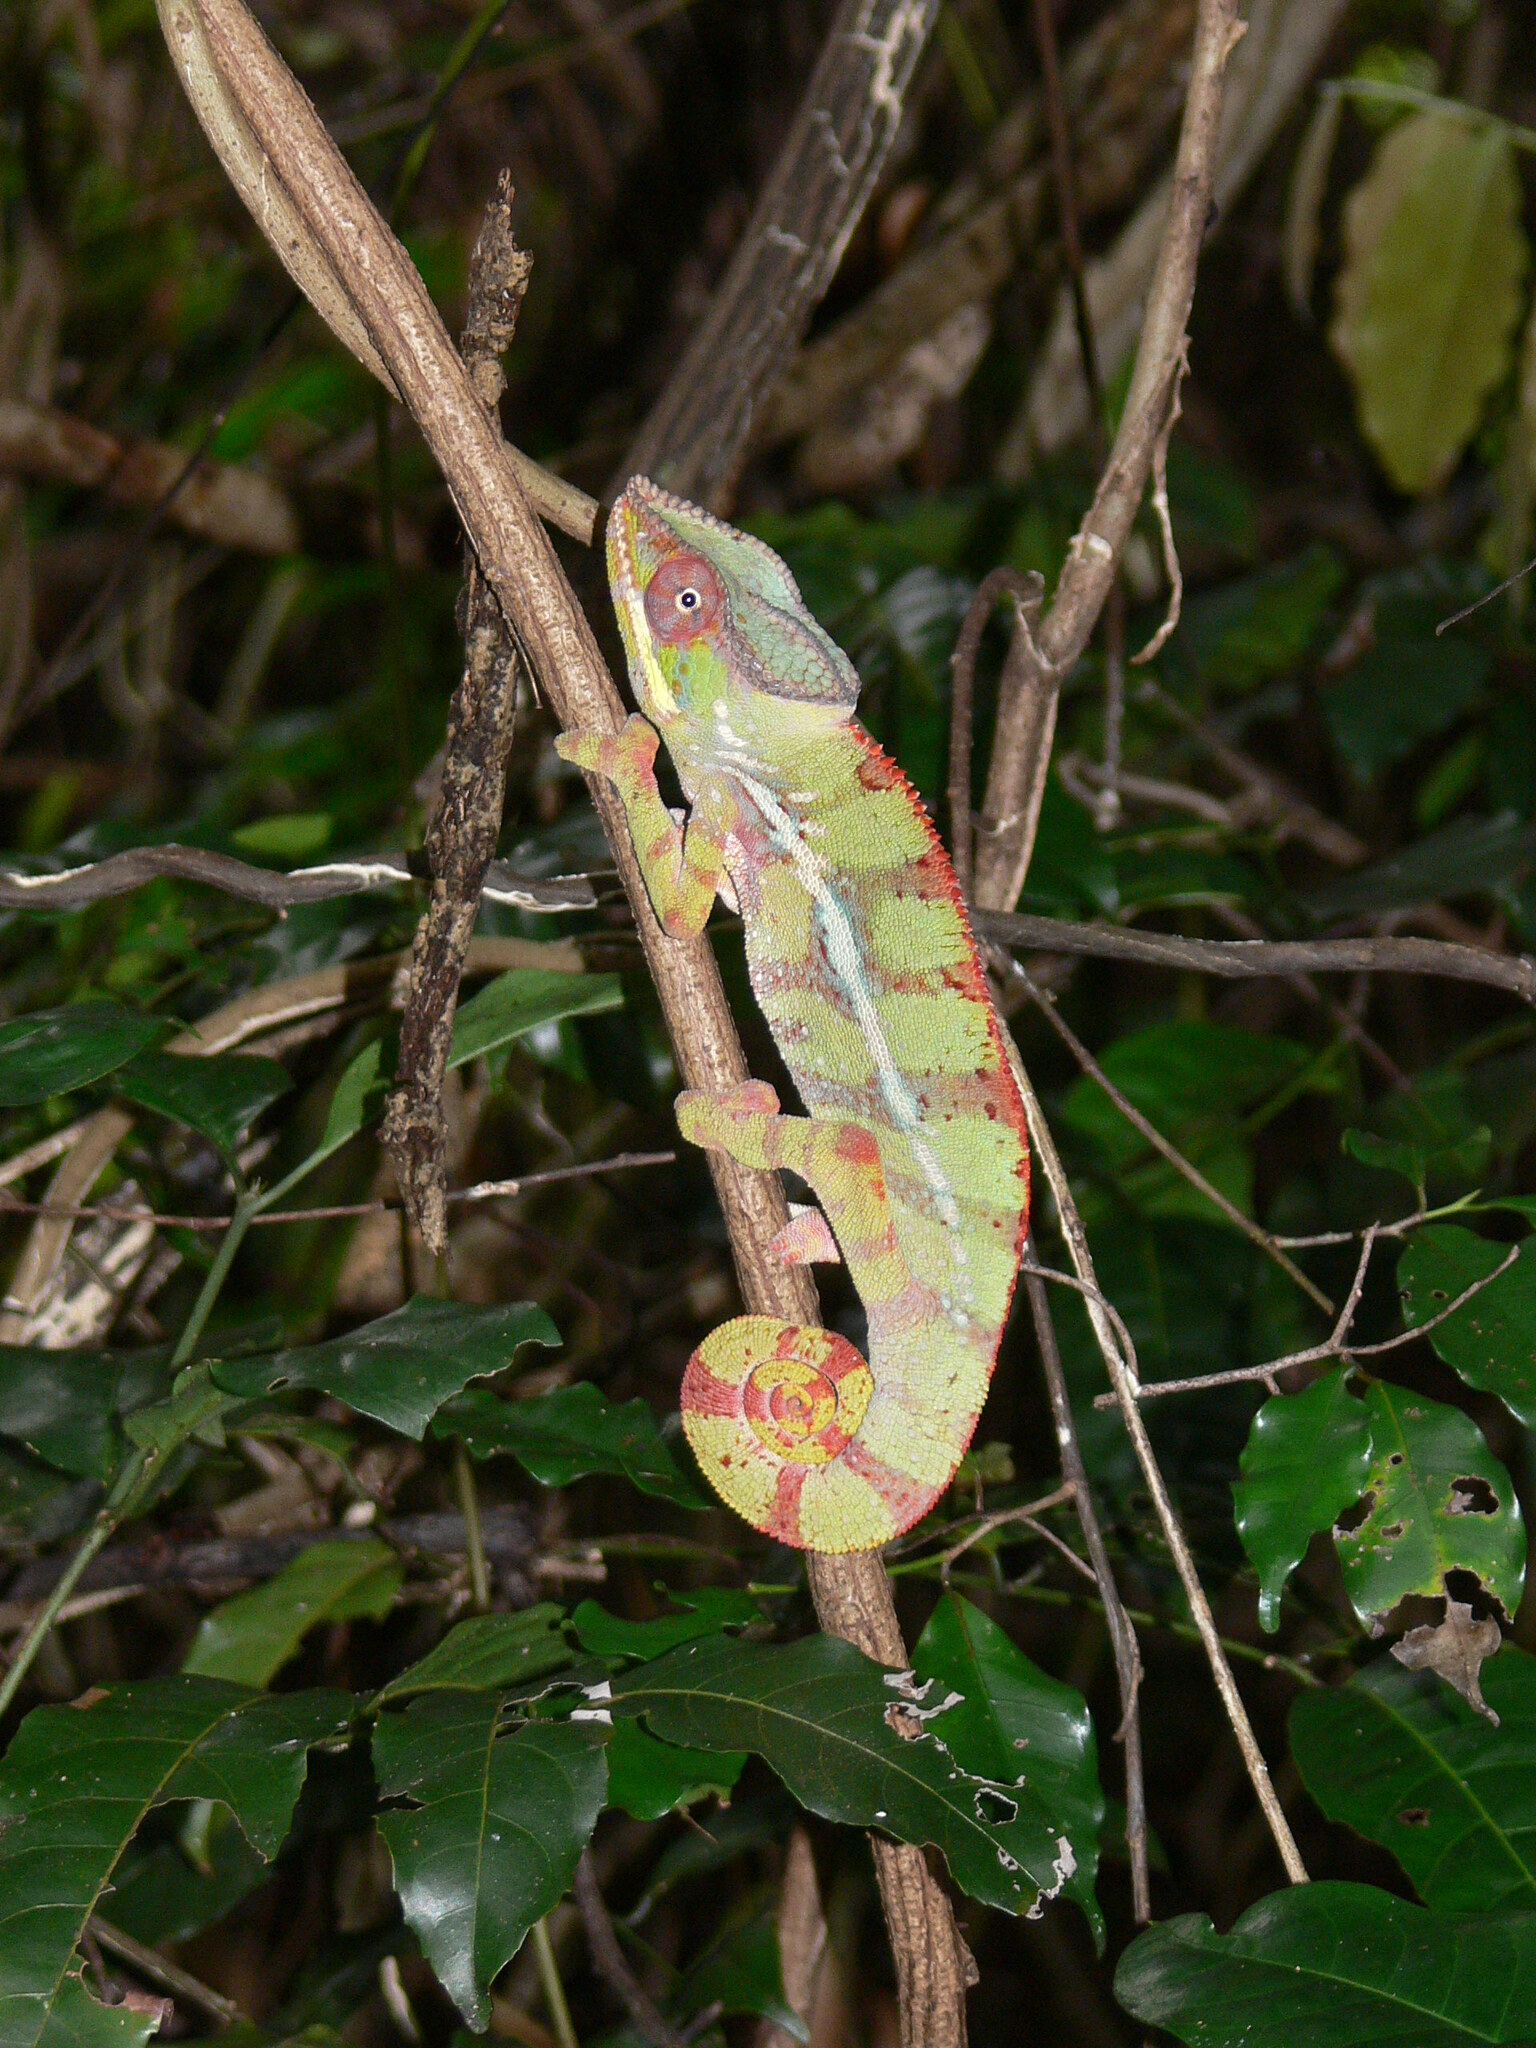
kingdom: Animalia
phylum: Chordata
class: Squamata
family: Chamaeleonidae
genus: Furcifer
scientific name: Furcifer pardalis
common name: Panther chameleon
